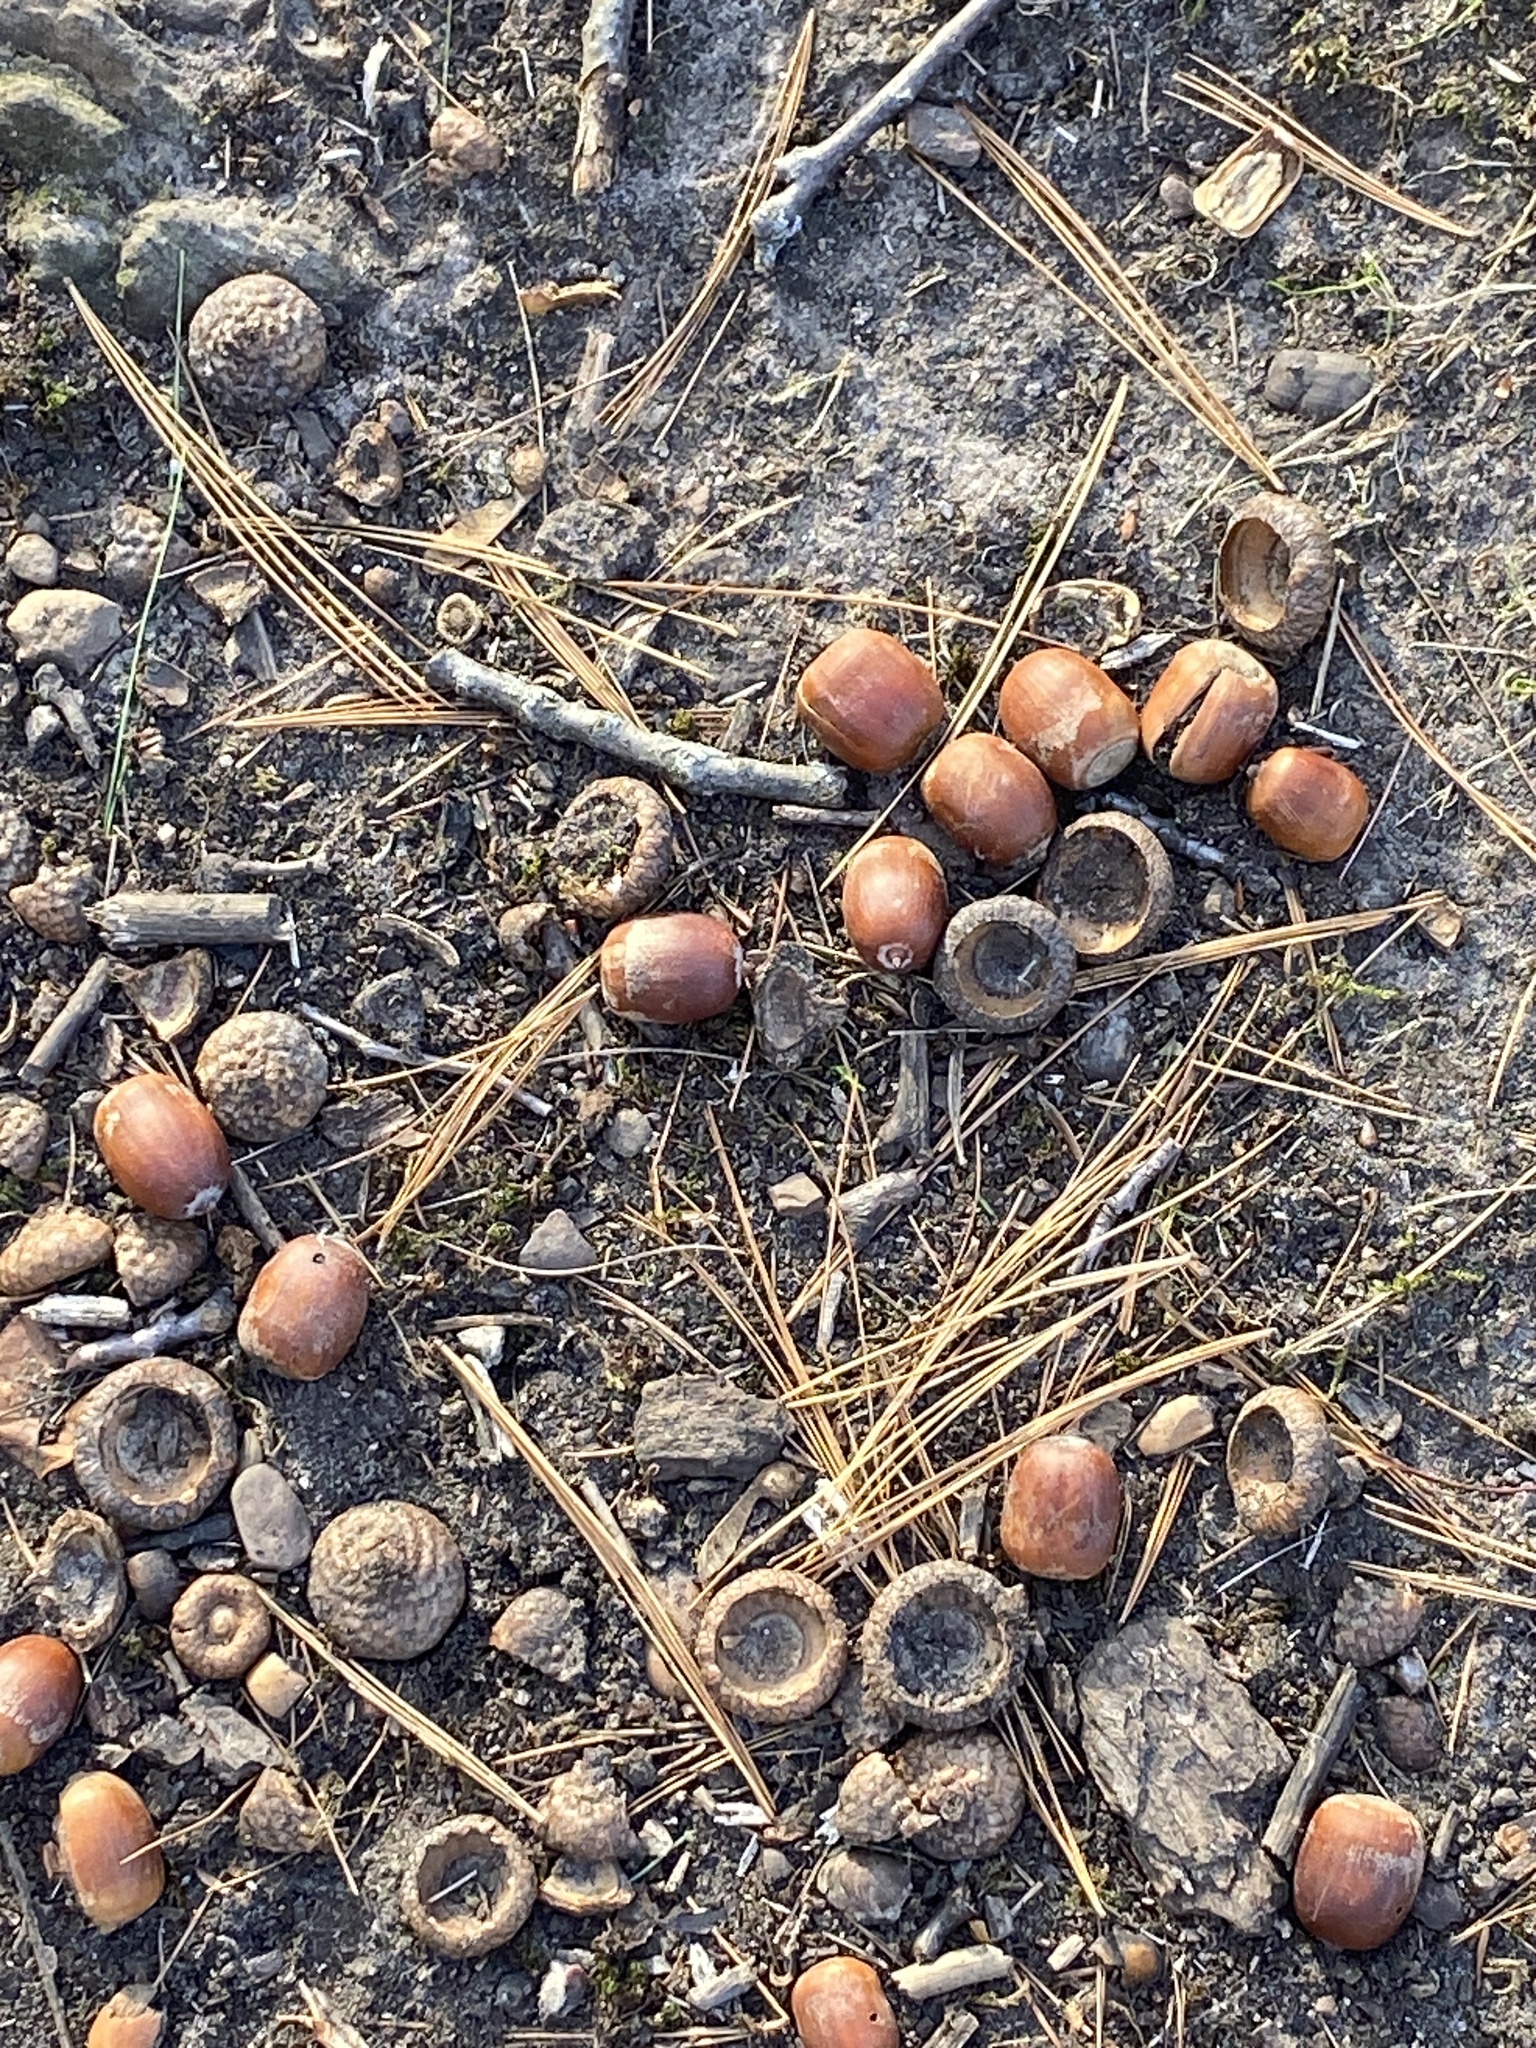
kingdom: Plantae
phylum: Tracheophyta
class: Magnoliopsida
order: Fagales
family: Fagaceae
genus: Quercus
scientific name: Quercus rubra
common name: Red oak
